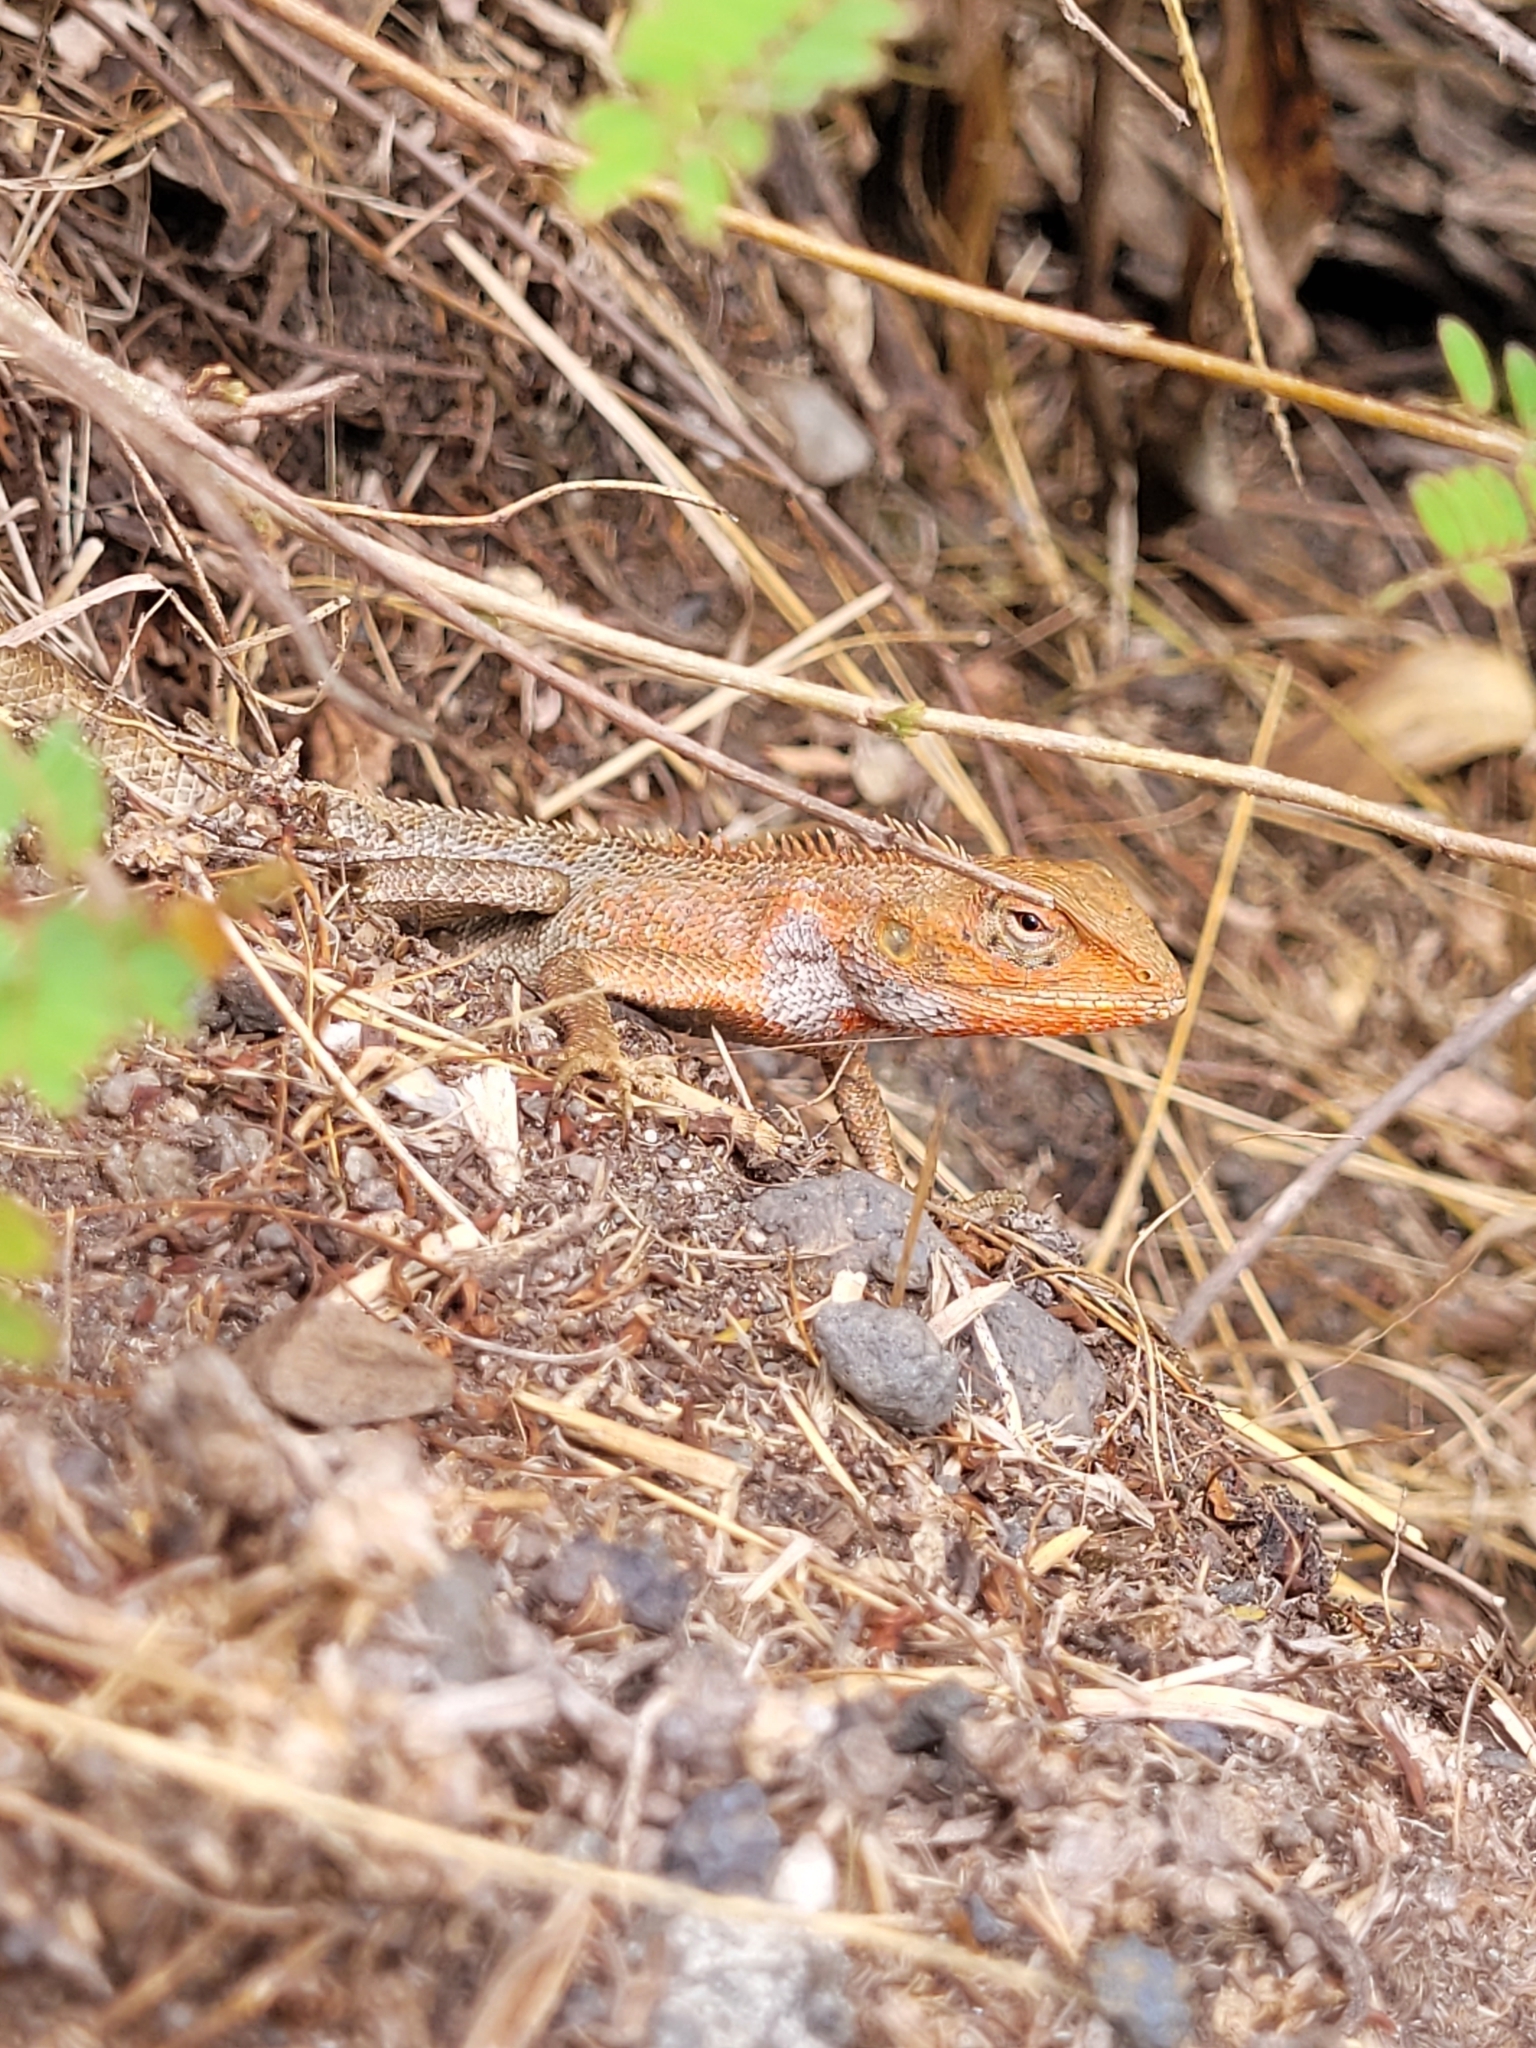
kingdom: Animalia
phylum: Chordata
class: Squamata
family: Agamidae
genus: Calotes
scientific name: Calotes versicolor
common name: Oriental garden lizard
